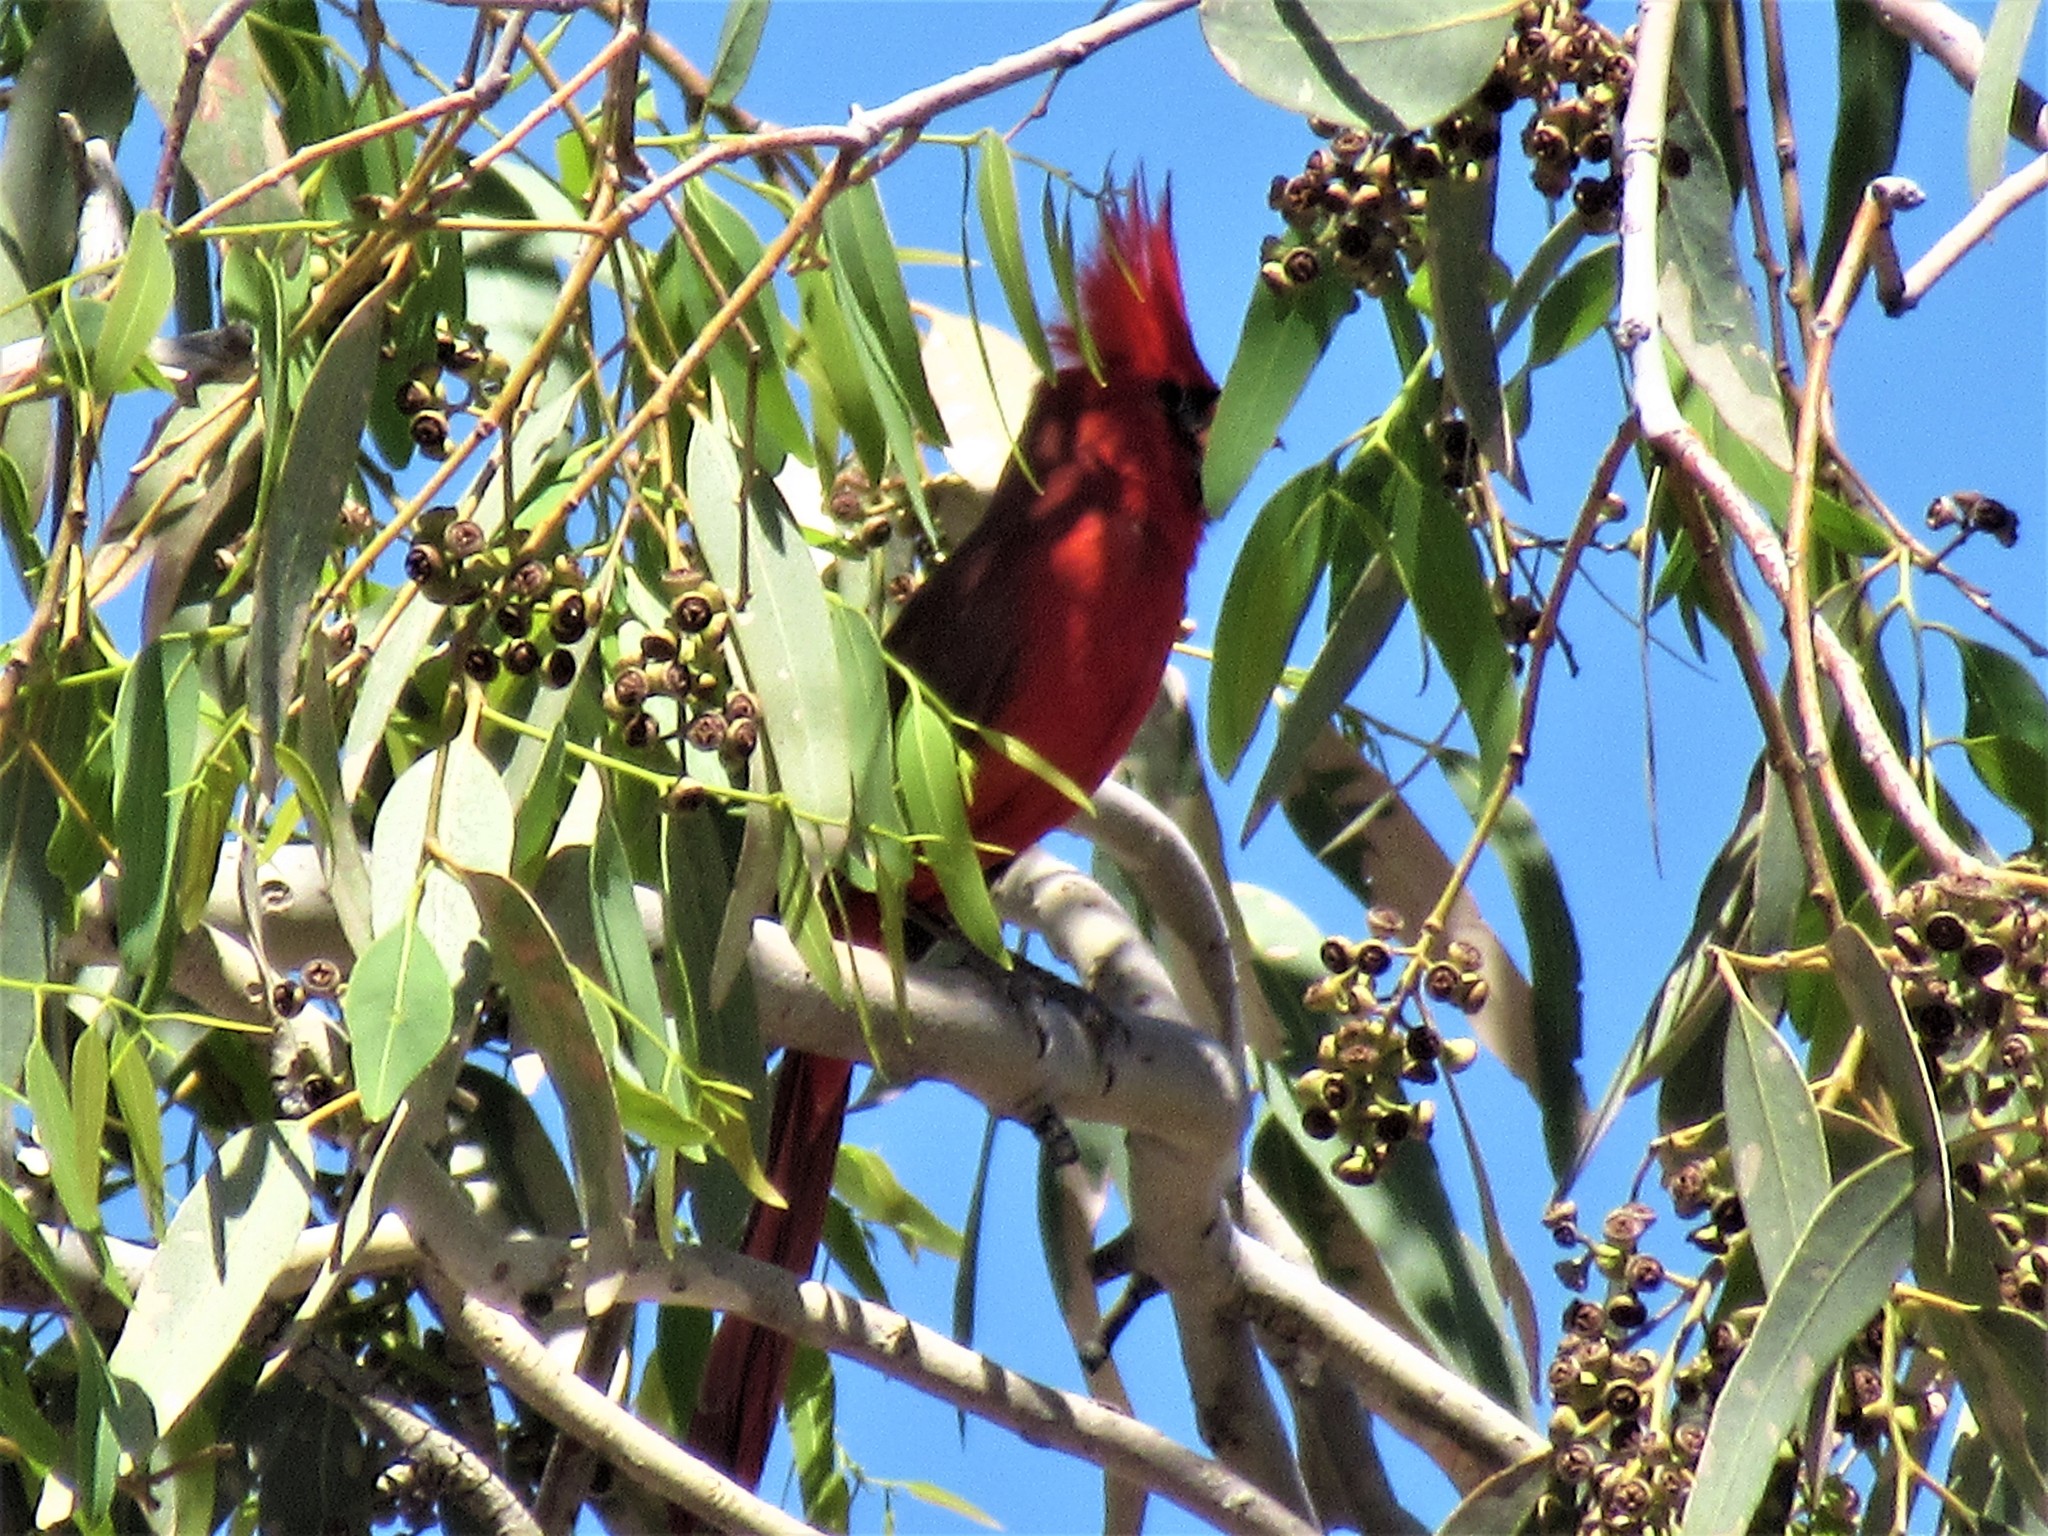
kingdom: Animalia
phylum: Chordata
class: Aves
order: Passeriformes
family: Cardinalidae
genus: Cardinalis
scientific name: Cardinalis cardinalis
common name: Northern cardinal
